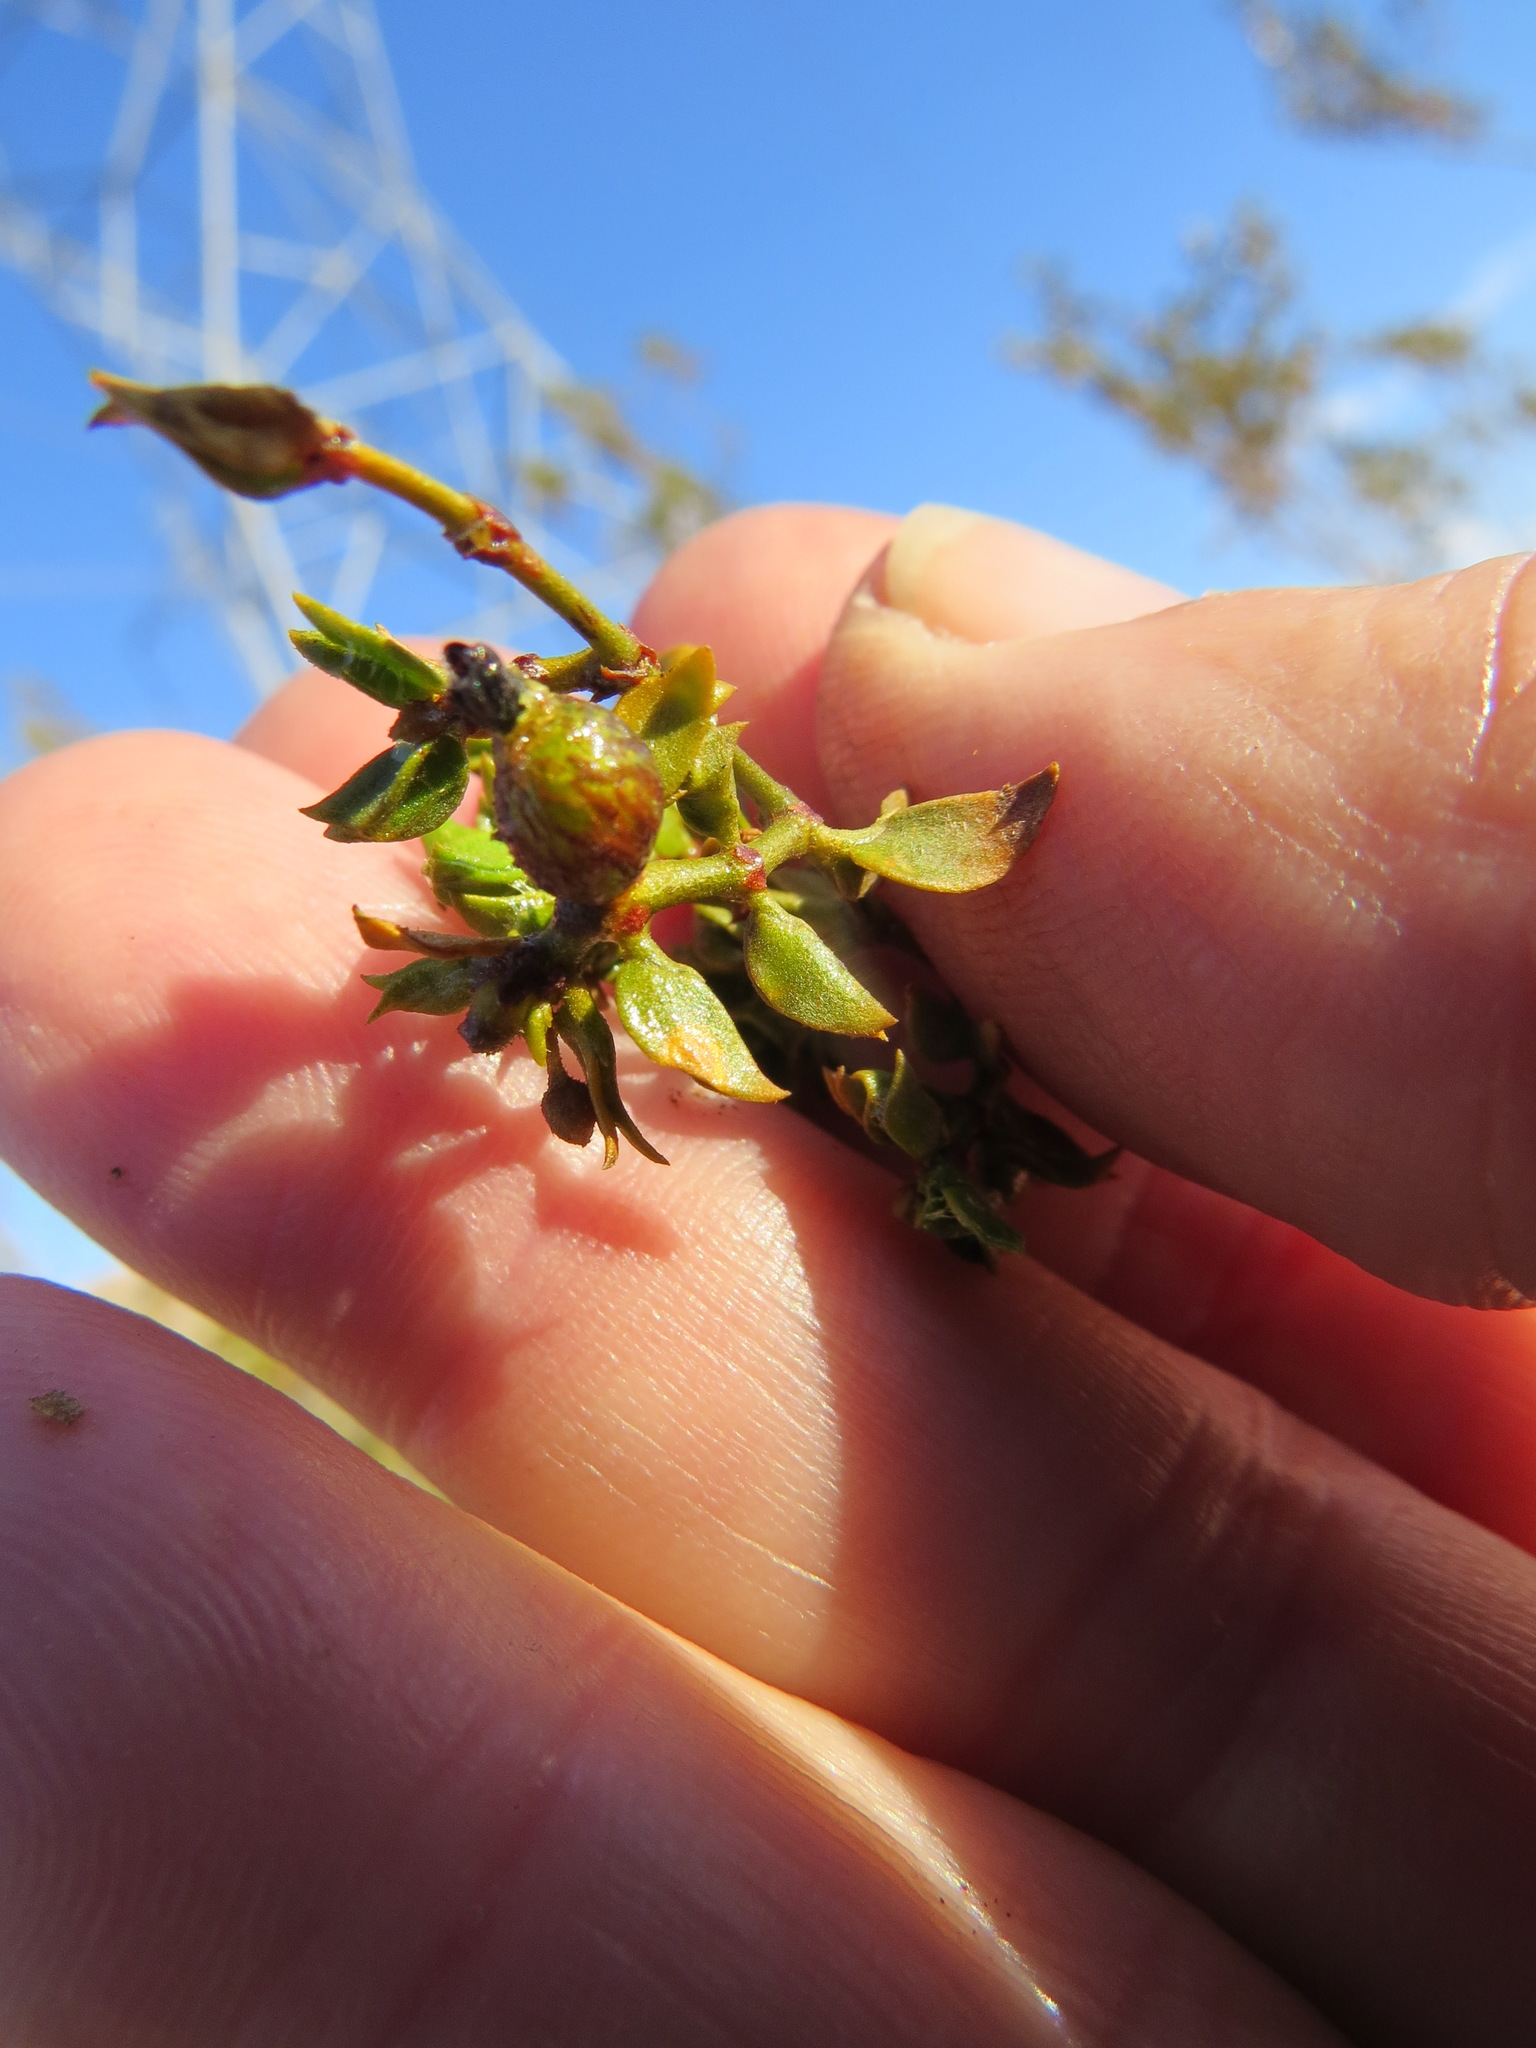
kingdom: Animalia
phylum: Arthropoda
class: Insecta
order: Diptera
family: Cecidomyiidae
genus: Asphondylia
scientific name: Asphondylia resinosa
